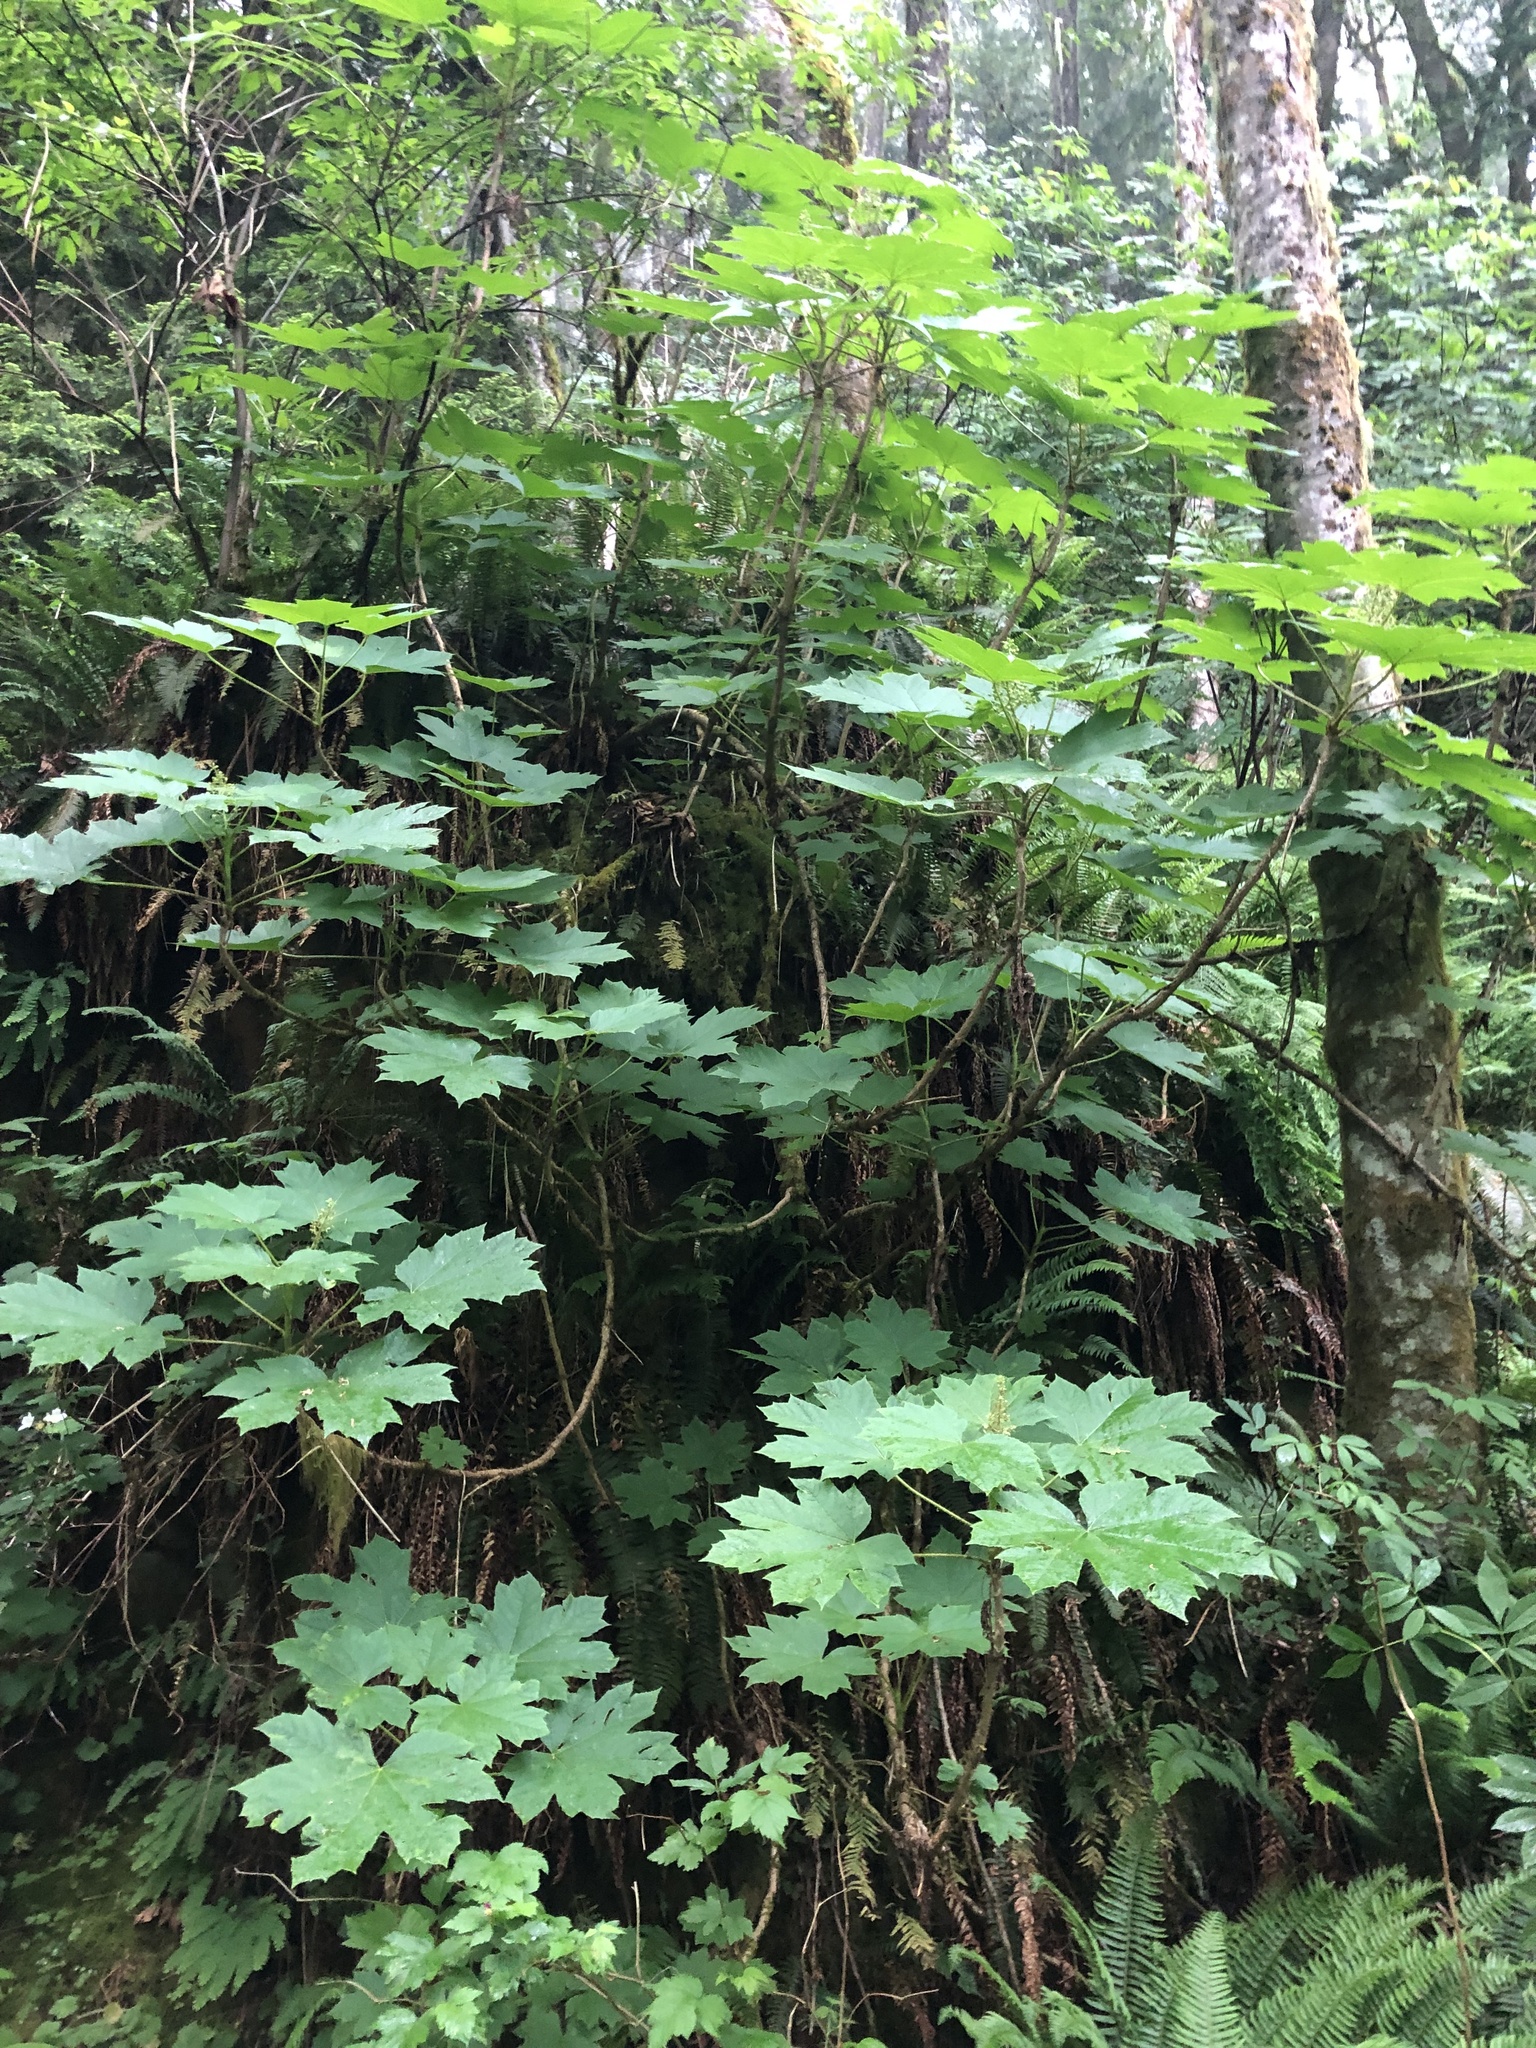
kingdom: Plantae
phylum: Tracheophyta
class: Magnoliopsida
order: Apiales
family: Araliaceae
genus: Oplopanax
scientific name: Oplopanax horridus
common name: Devil's walking-stick
